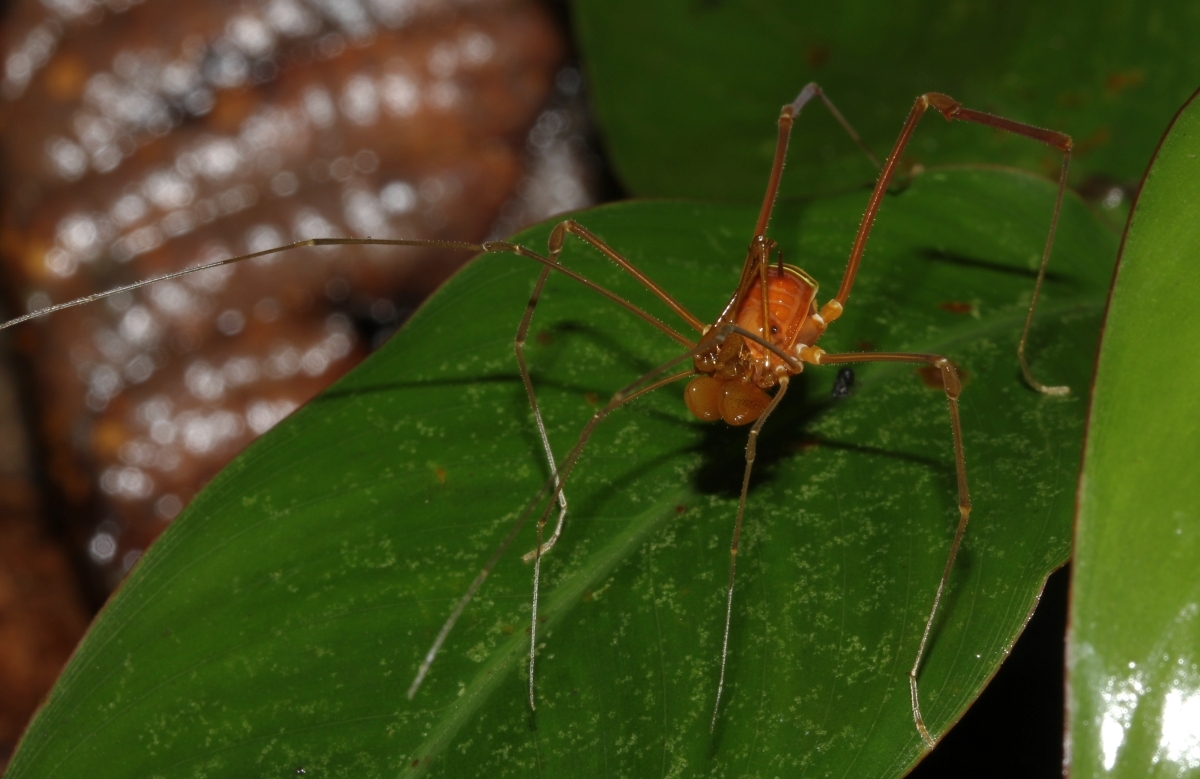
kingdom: Animalia
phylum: Arthropoda
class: Arachnida
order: Opiliones
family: Stygnidae
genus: Obidosus
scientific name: Obidosus
